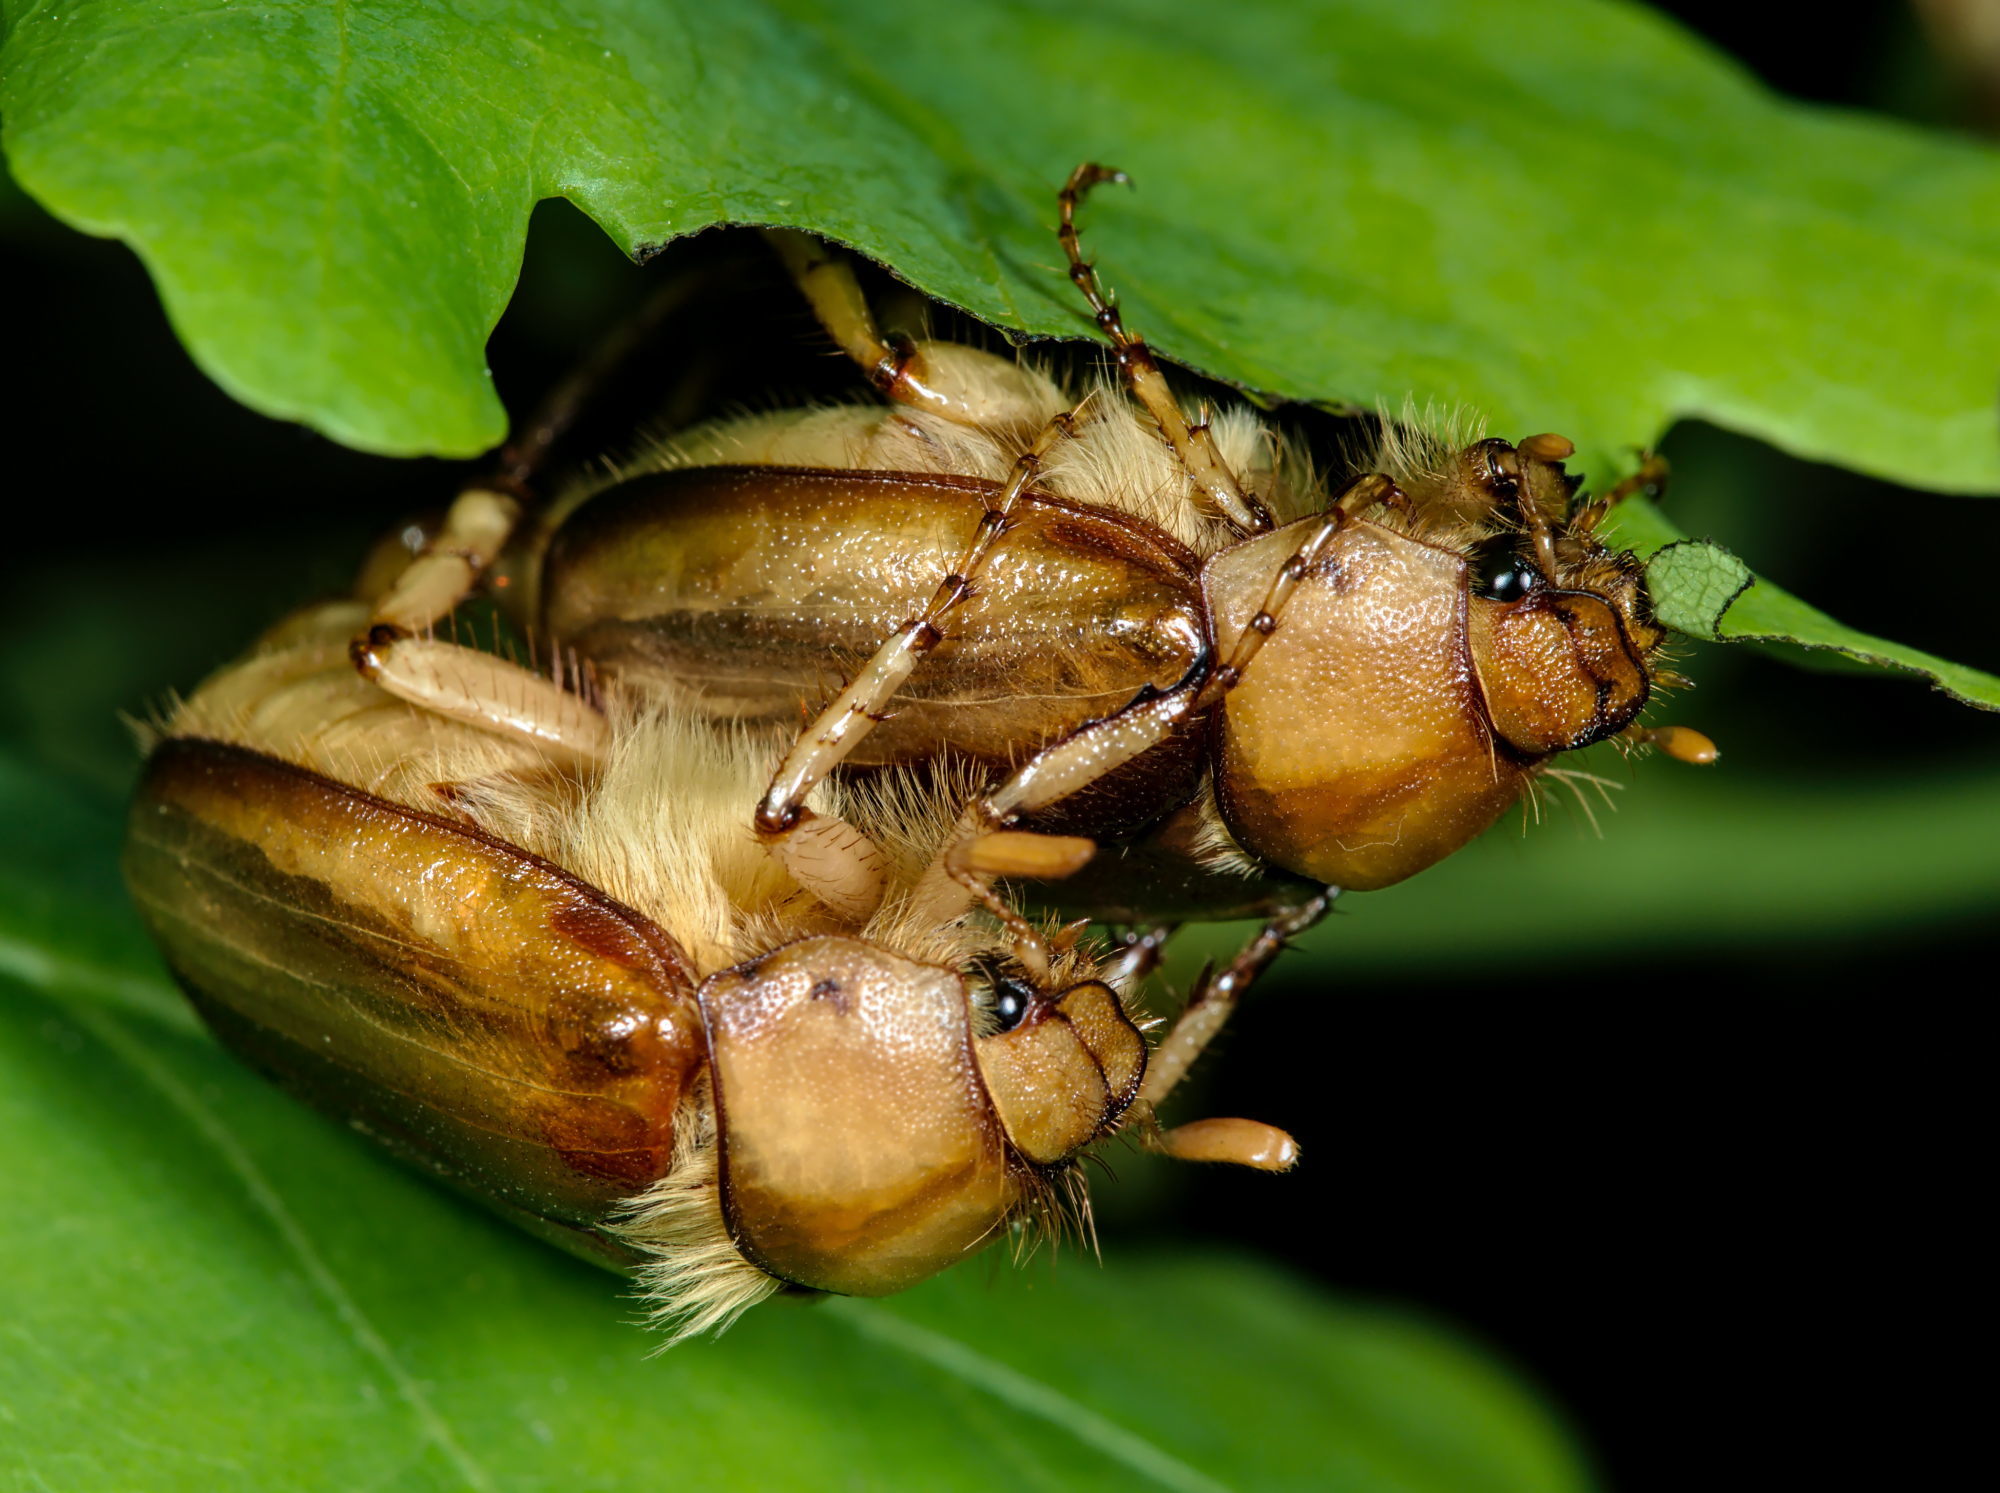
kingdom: Animalia
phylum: Arthropoda
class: Insecta
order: Coleoptera
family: Scarabaeidae
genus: Rhizotrogus
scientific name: Rhizotrogus aestivus
